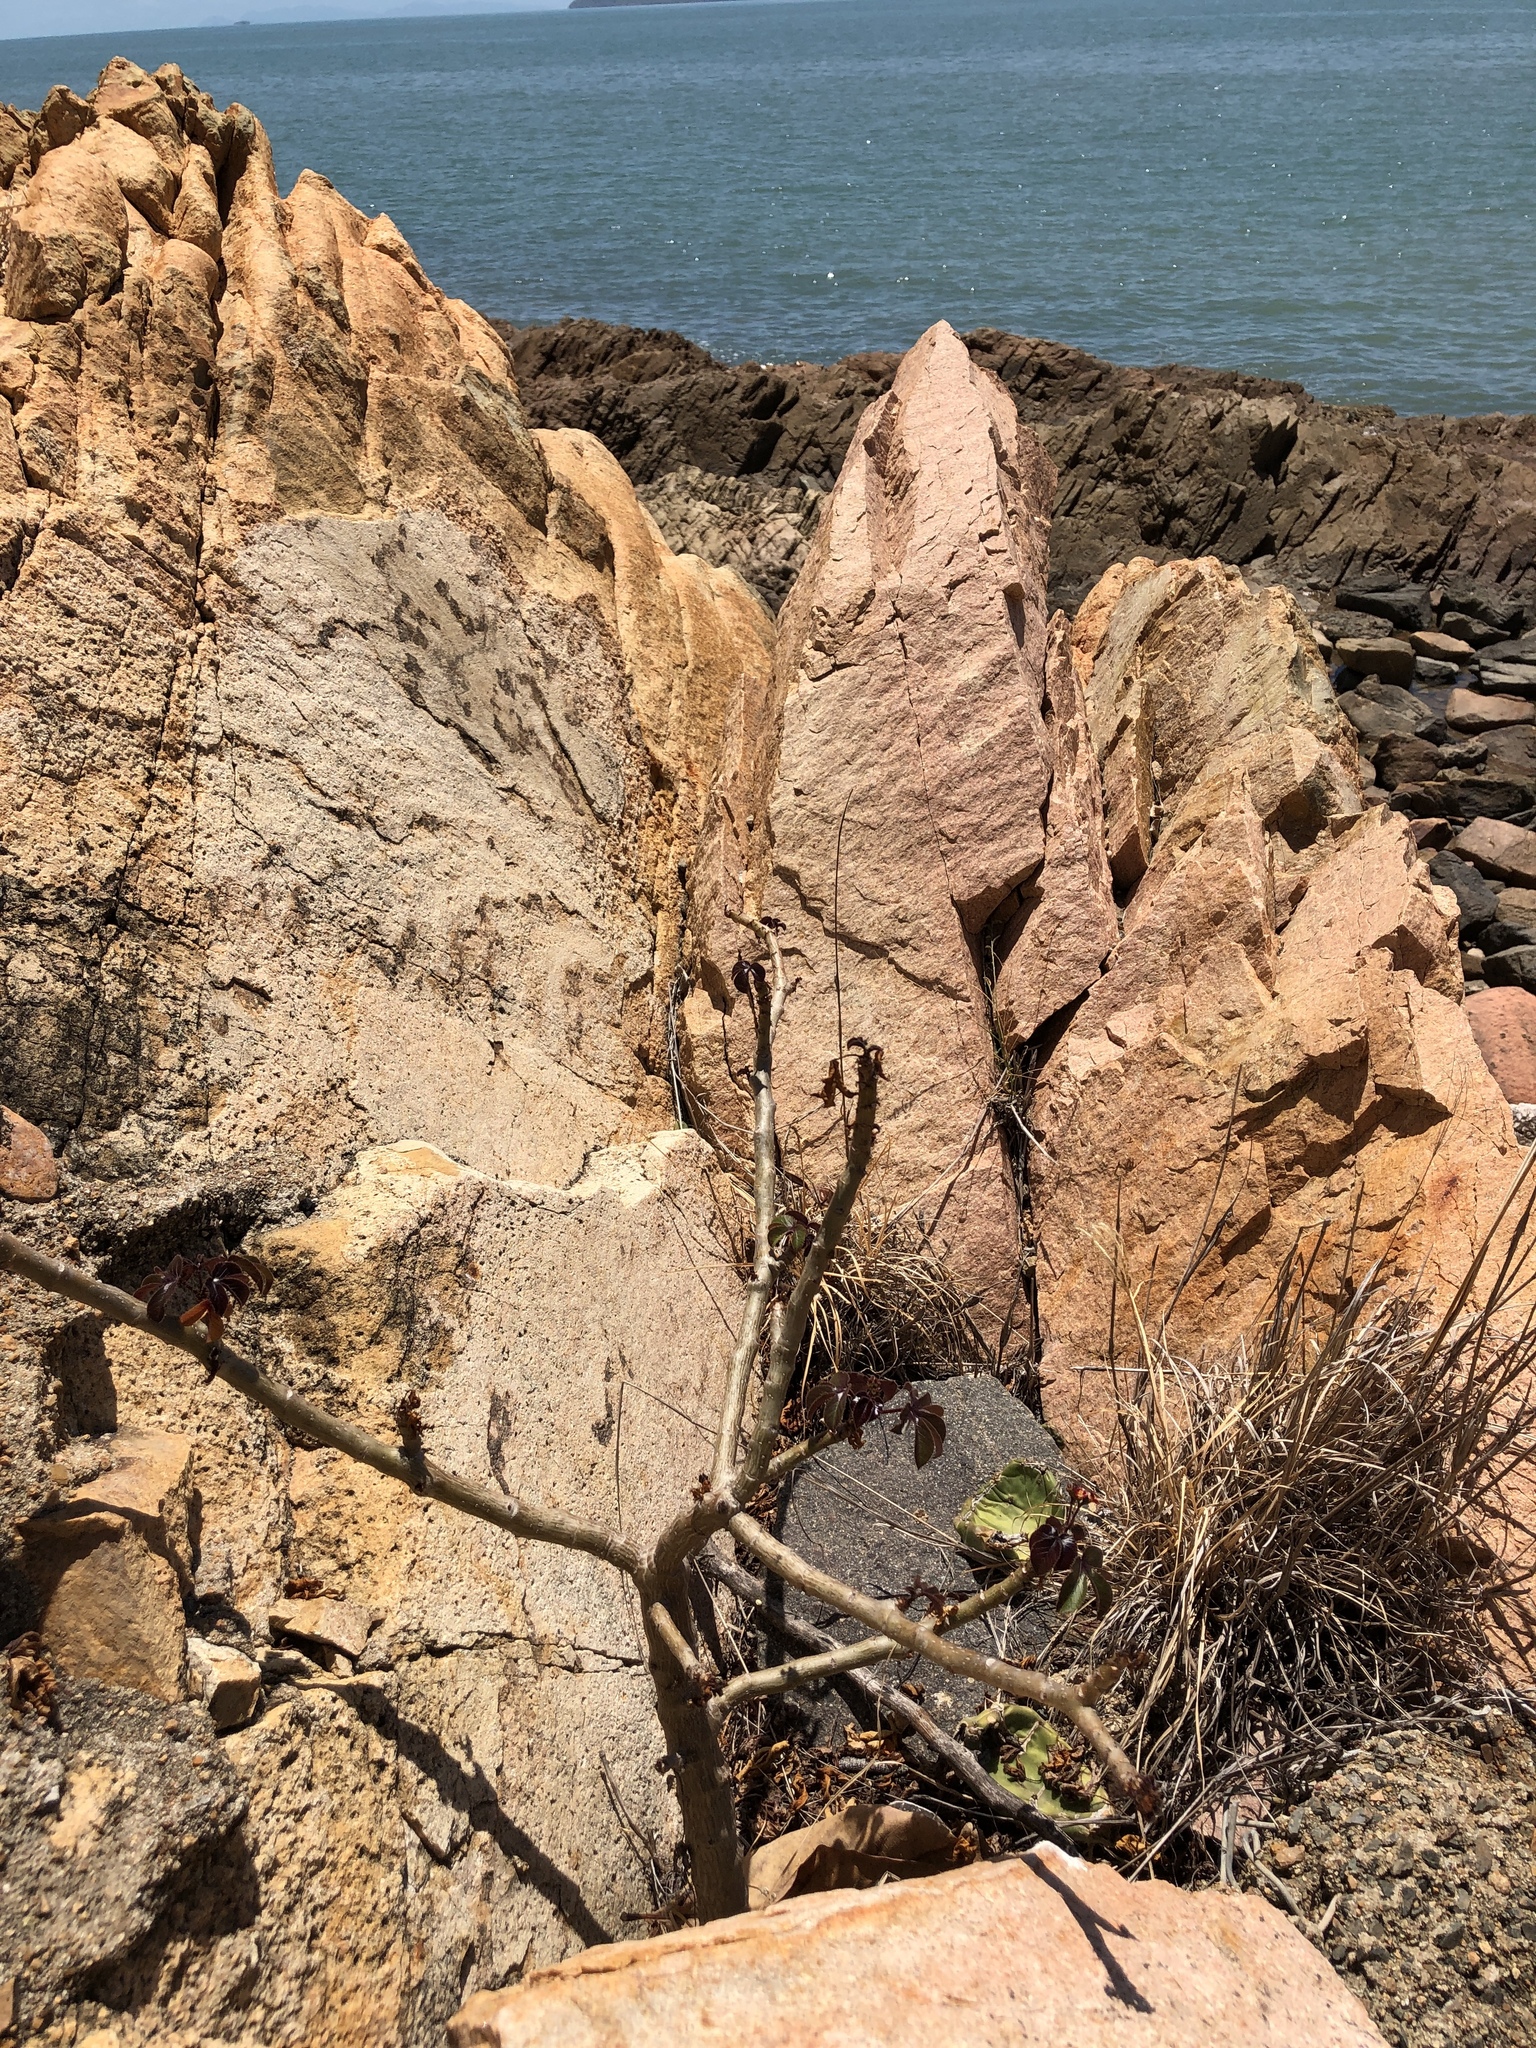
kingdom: Plantae
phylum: Tracheophyta
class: Magnoliopsida
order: Malpighiales
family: Euphorbiaceae
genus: Jatropha
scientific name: Jatropha gossypiifolia
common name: Bellyache bush
